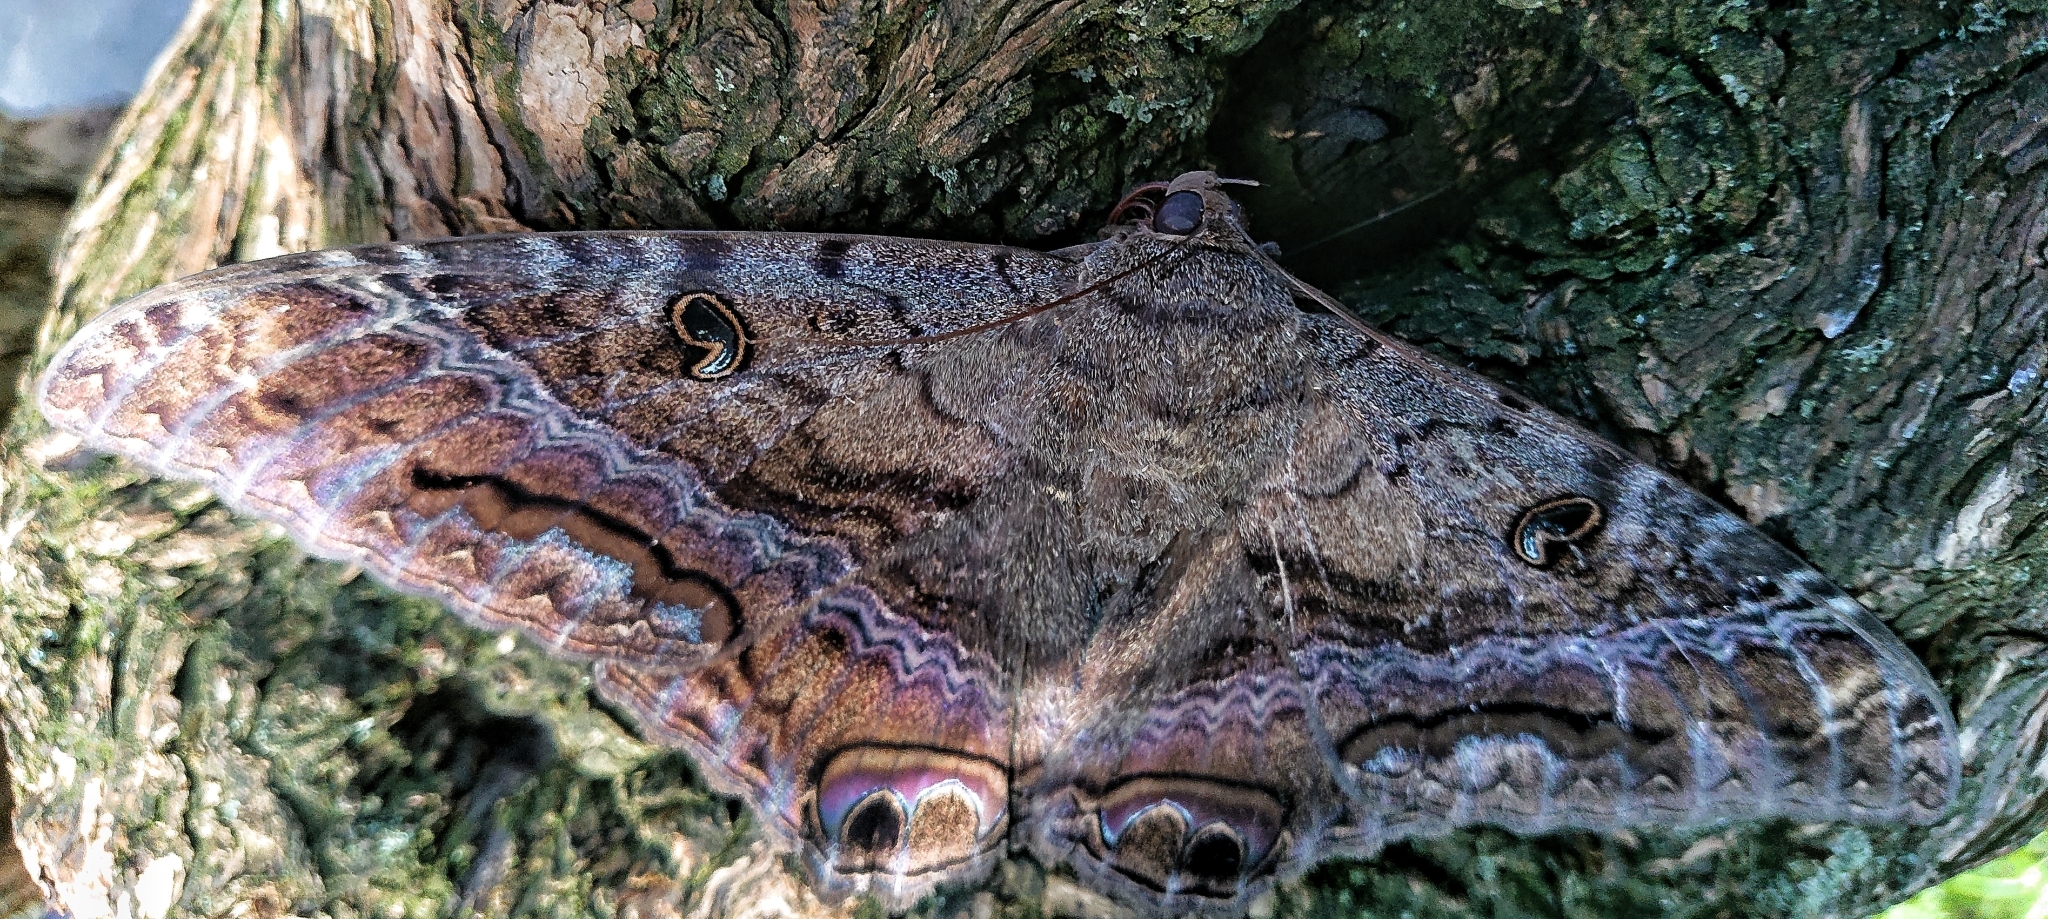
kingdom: Animalia
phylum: Arthropoda
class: Insecta
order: Lepidoptera
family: Erebidae
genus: Ascalapha
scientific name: Ascalapha odorata
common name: Black witch
